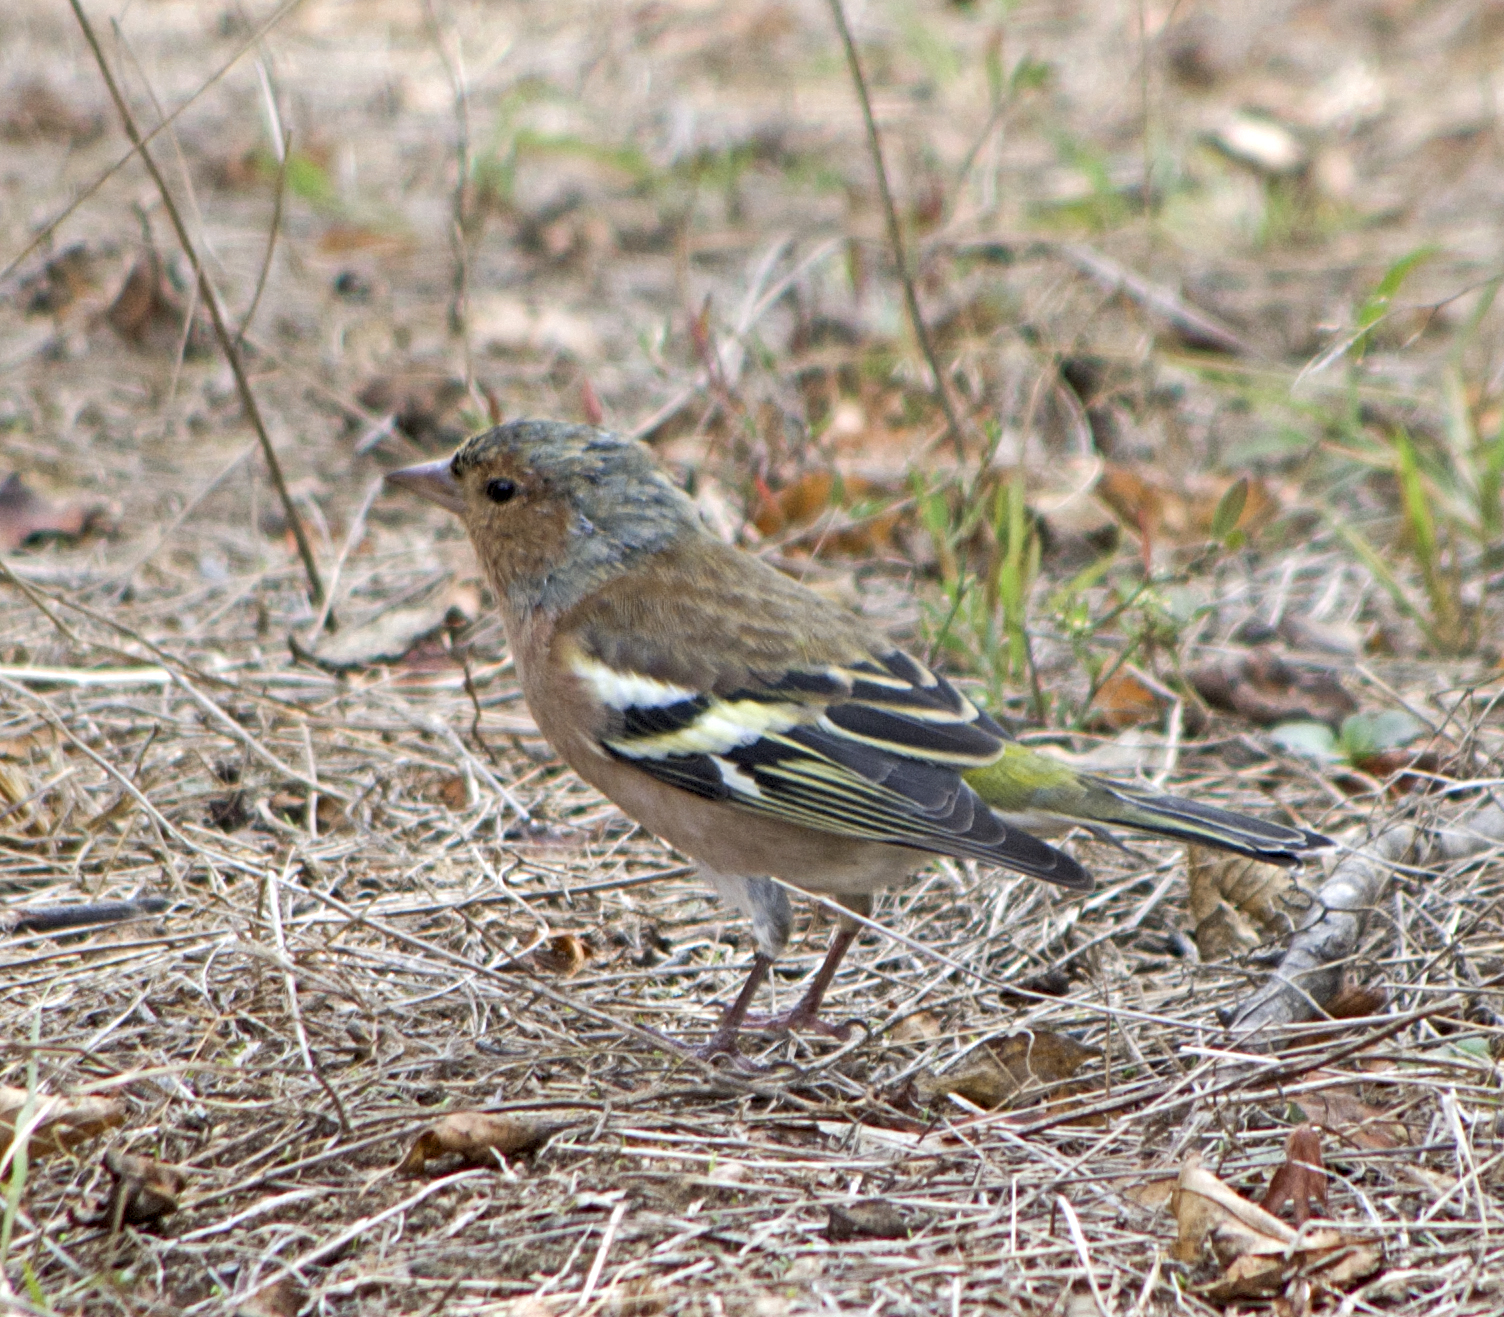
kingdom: Animalia
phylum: Chordata
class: Aves
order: Passeriformes
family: Fringillidae
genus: Fringilla
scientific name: Fringilla coelebs
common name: Common chaffinch
